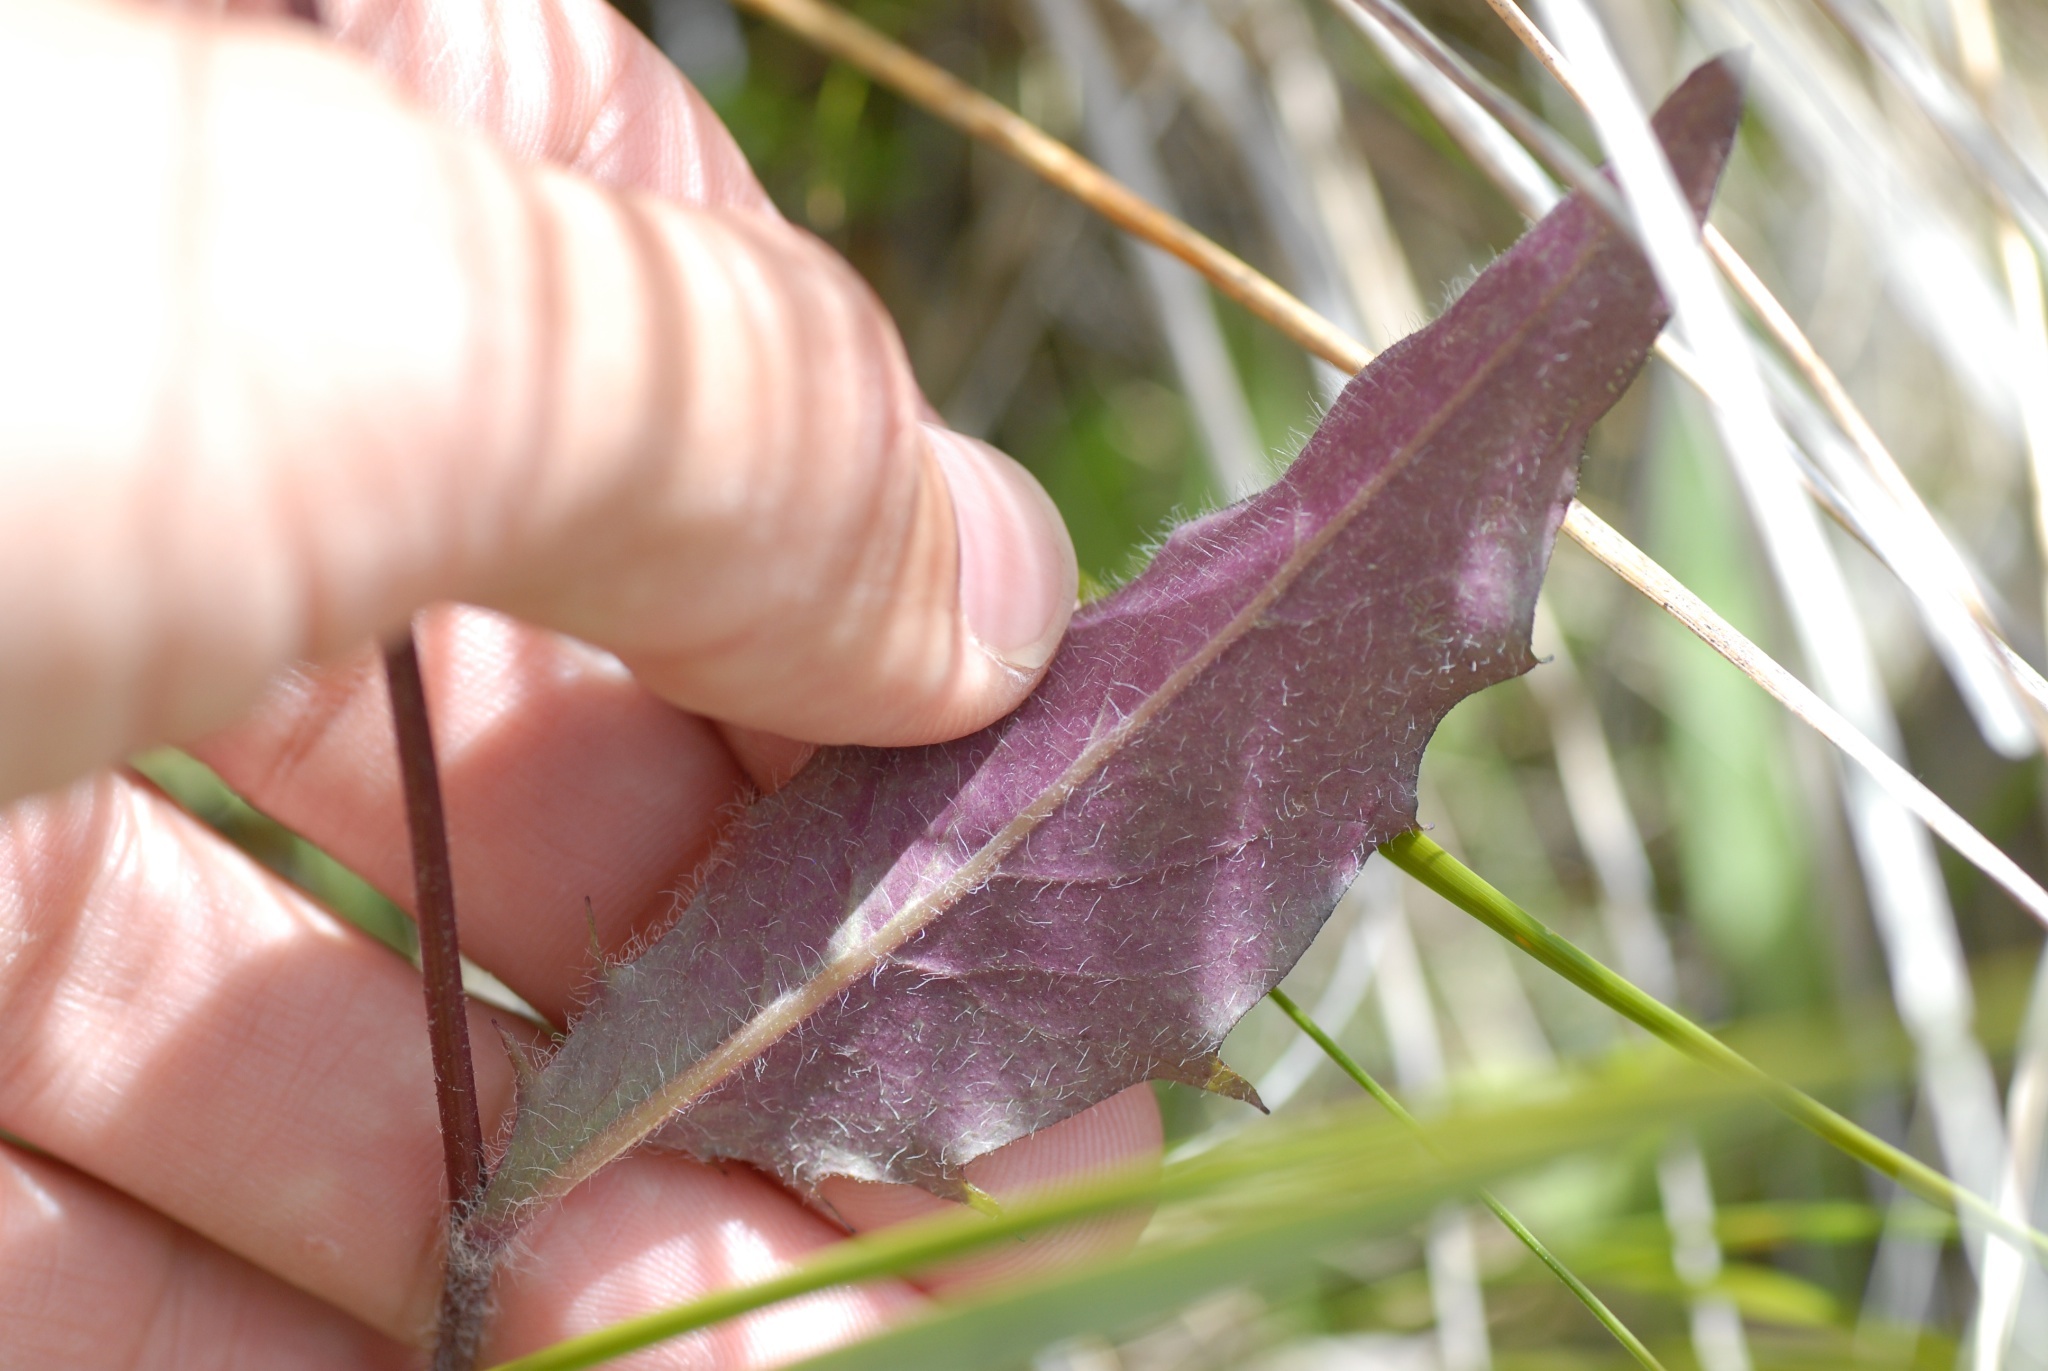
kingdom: Plantae
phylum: Tracheophyta
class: Magnoliopsida
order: Asterales
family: Asteraceae
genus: Hieracium
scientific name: Hieracium lepidulum
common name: Irregular-toothed hawkweed
